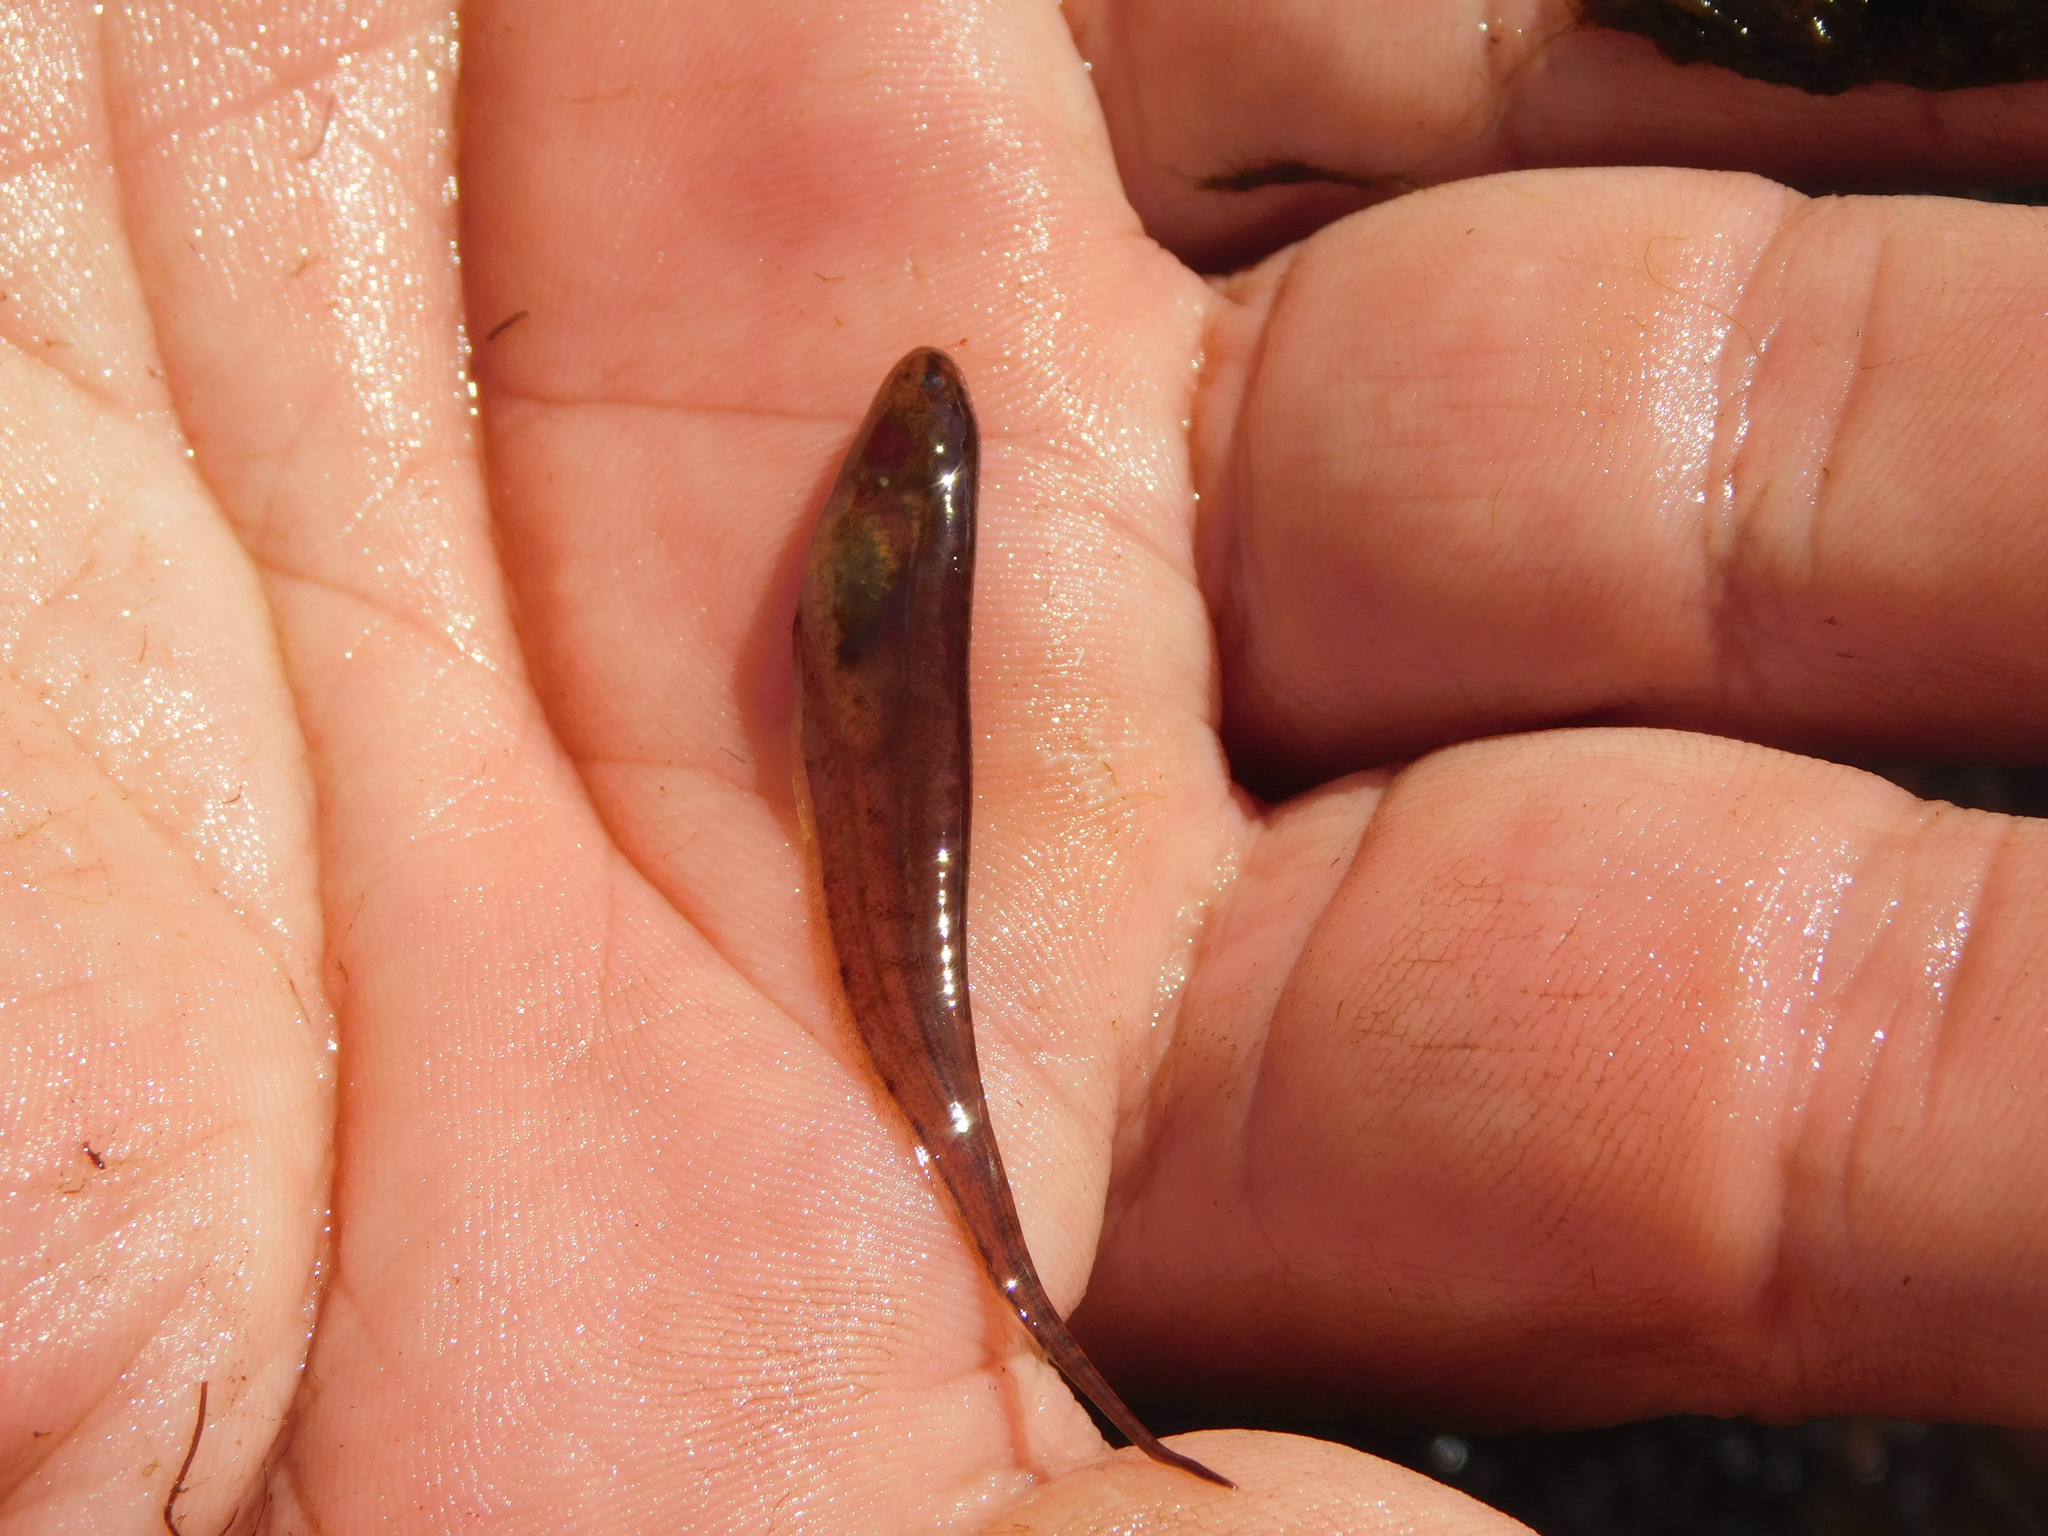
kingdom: Animalia
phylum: Chordata
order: Gymnotiformes
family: Hypopomidae
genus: Brachyhypopomus
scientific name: Brachyhypopomus gauderio
